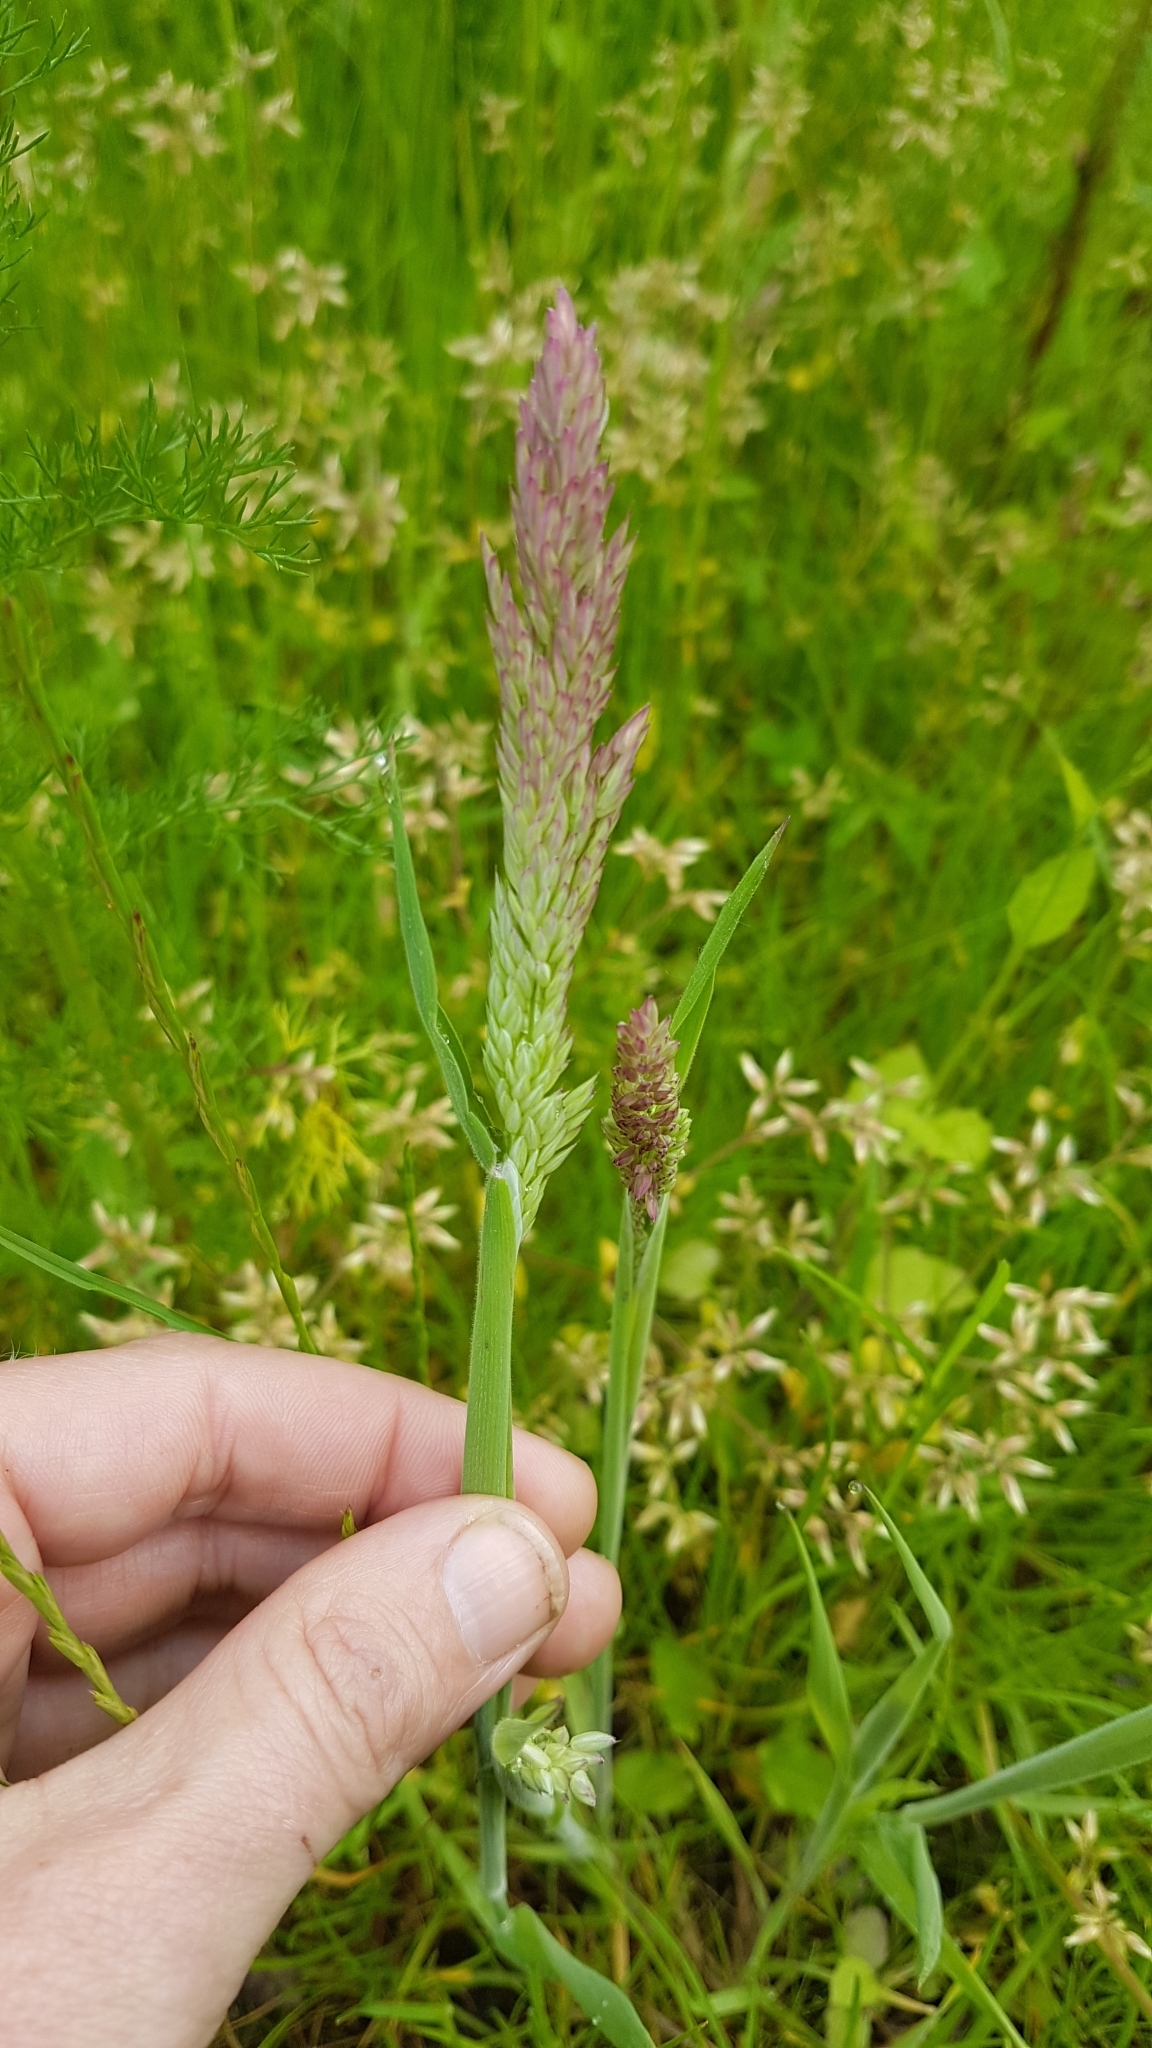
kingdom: Plantae
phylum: Tracheophyta
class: Liliopsida
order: Poales
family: Poaceae
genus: Holcus
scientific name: Holcus lanatus
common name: Yorkshire-fog
